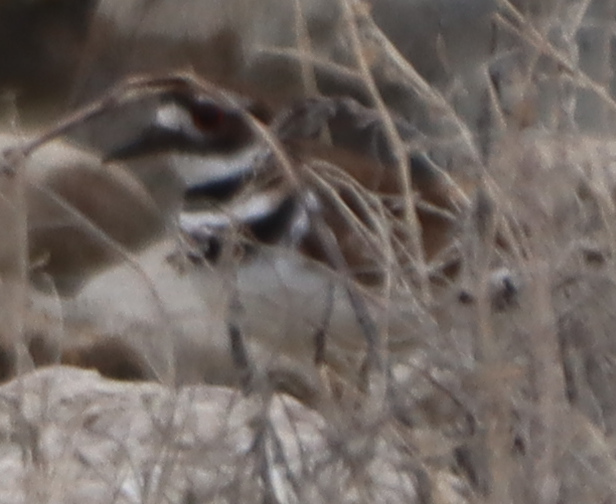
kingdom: Animalia
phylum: Chordata
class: Aves
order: Charadriiformes
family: Charadriidae
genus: Charadrius
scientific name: Charadrius vociferus
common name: Killdeer
